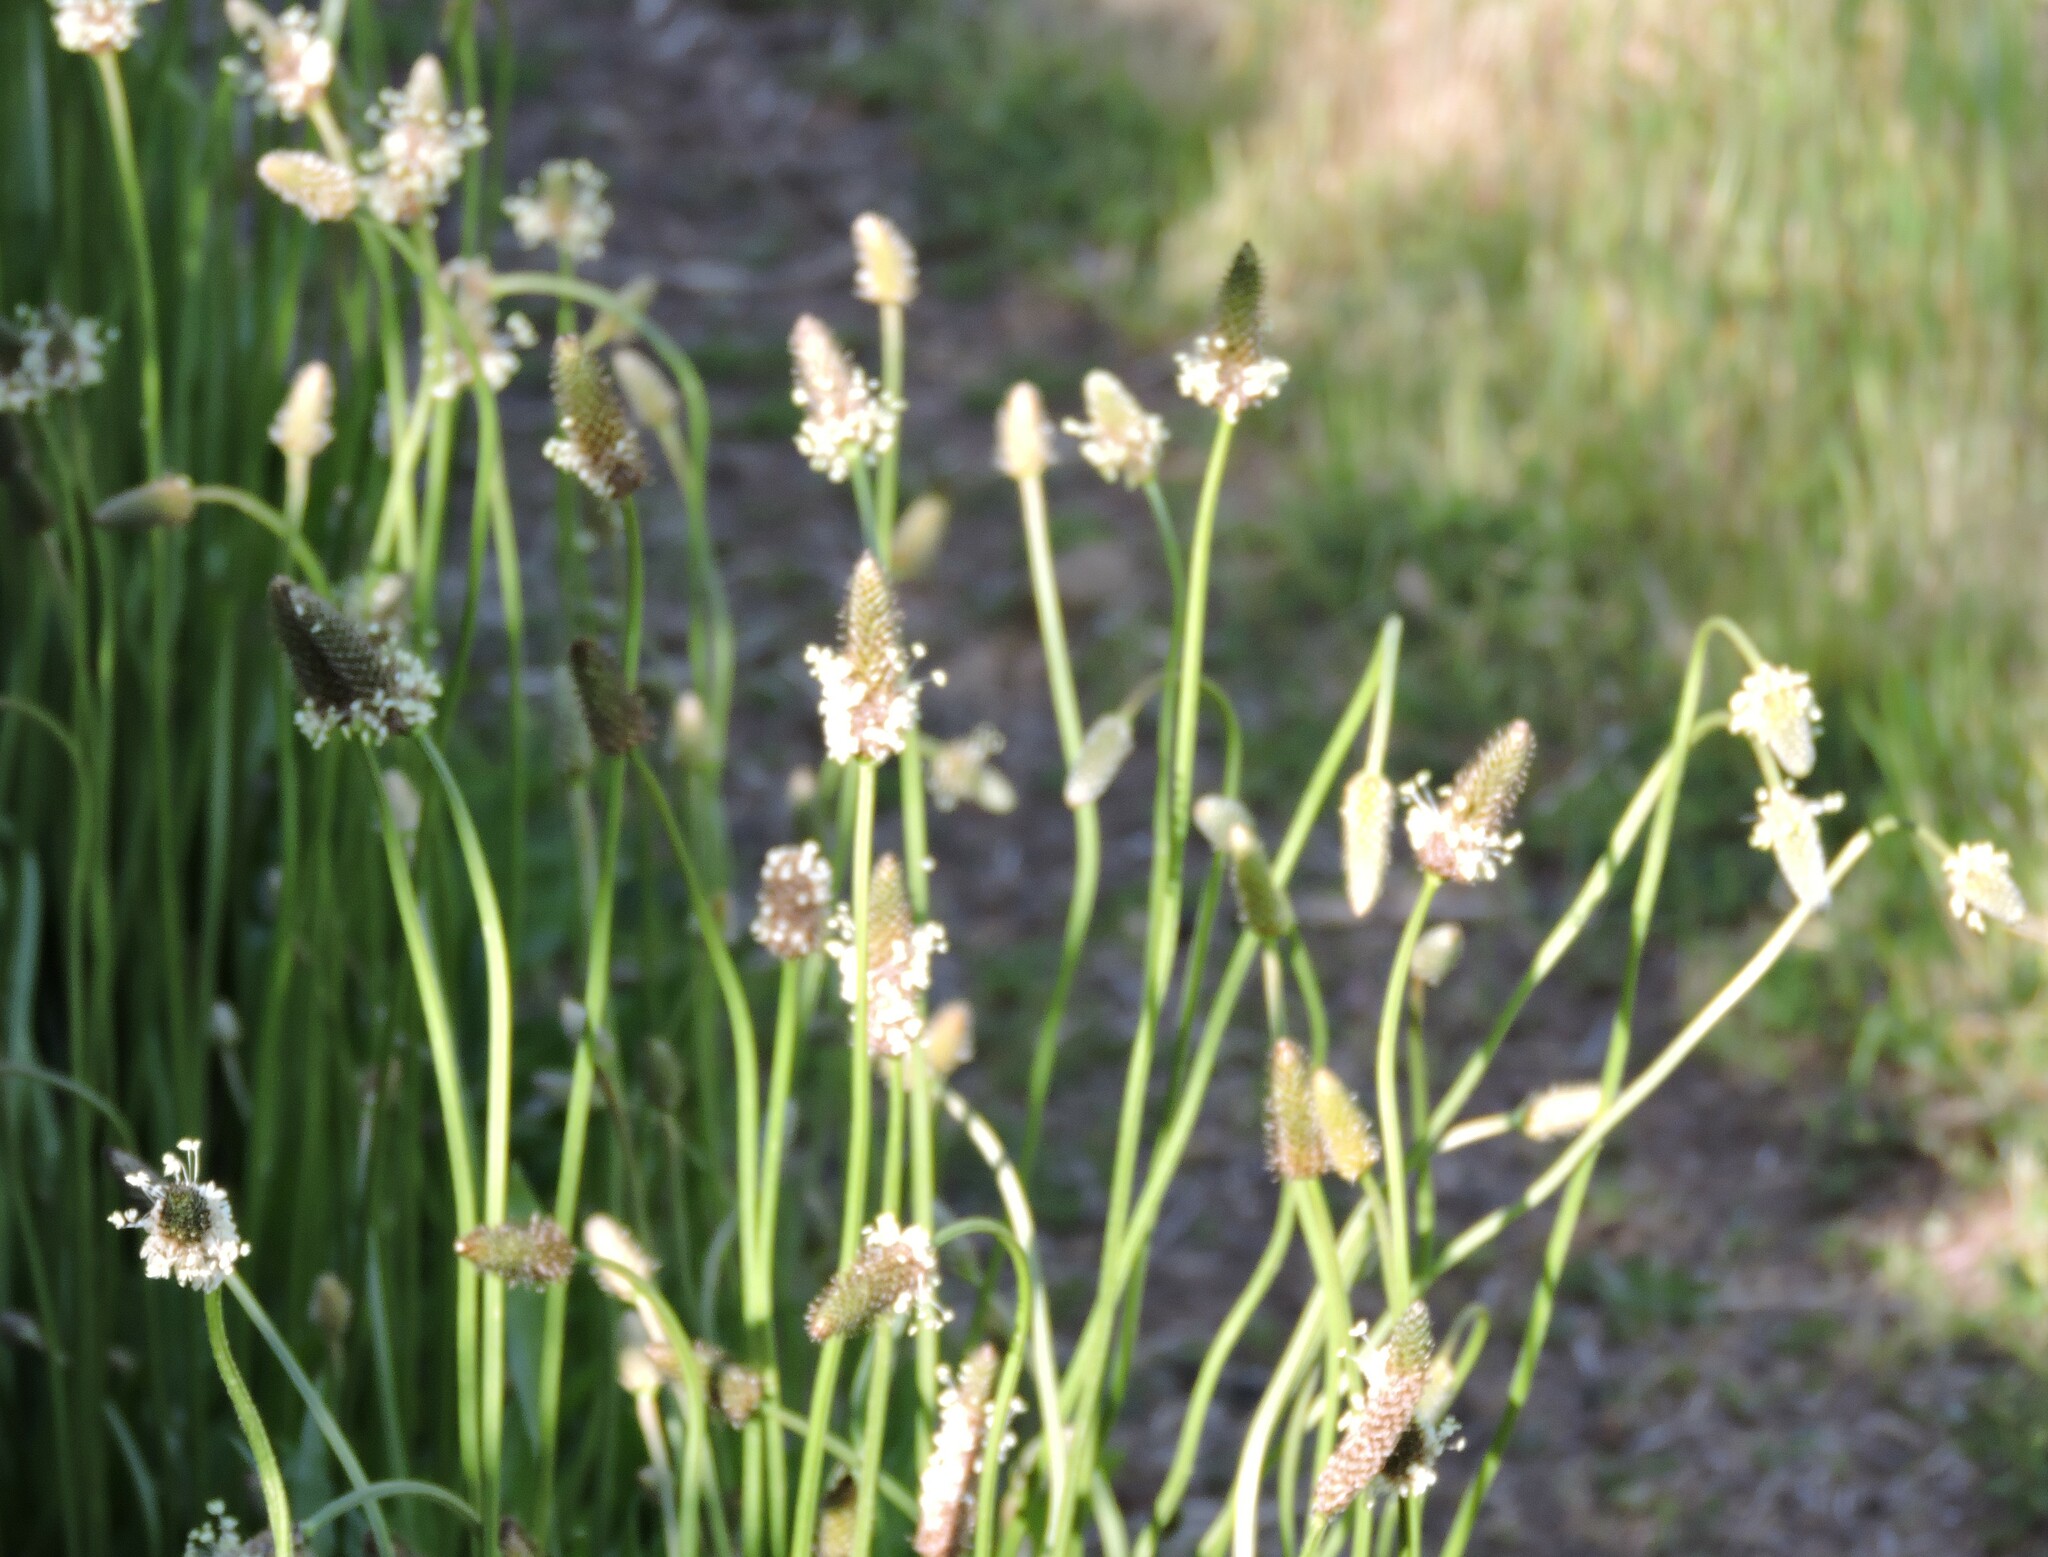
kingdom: Plantae
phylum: Tracheophyta
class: Magnoliopsida
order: Lamiales
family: Plantaginaceae
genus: Plantago
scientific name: Plantago lanceolata
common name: Ribwort plantain
